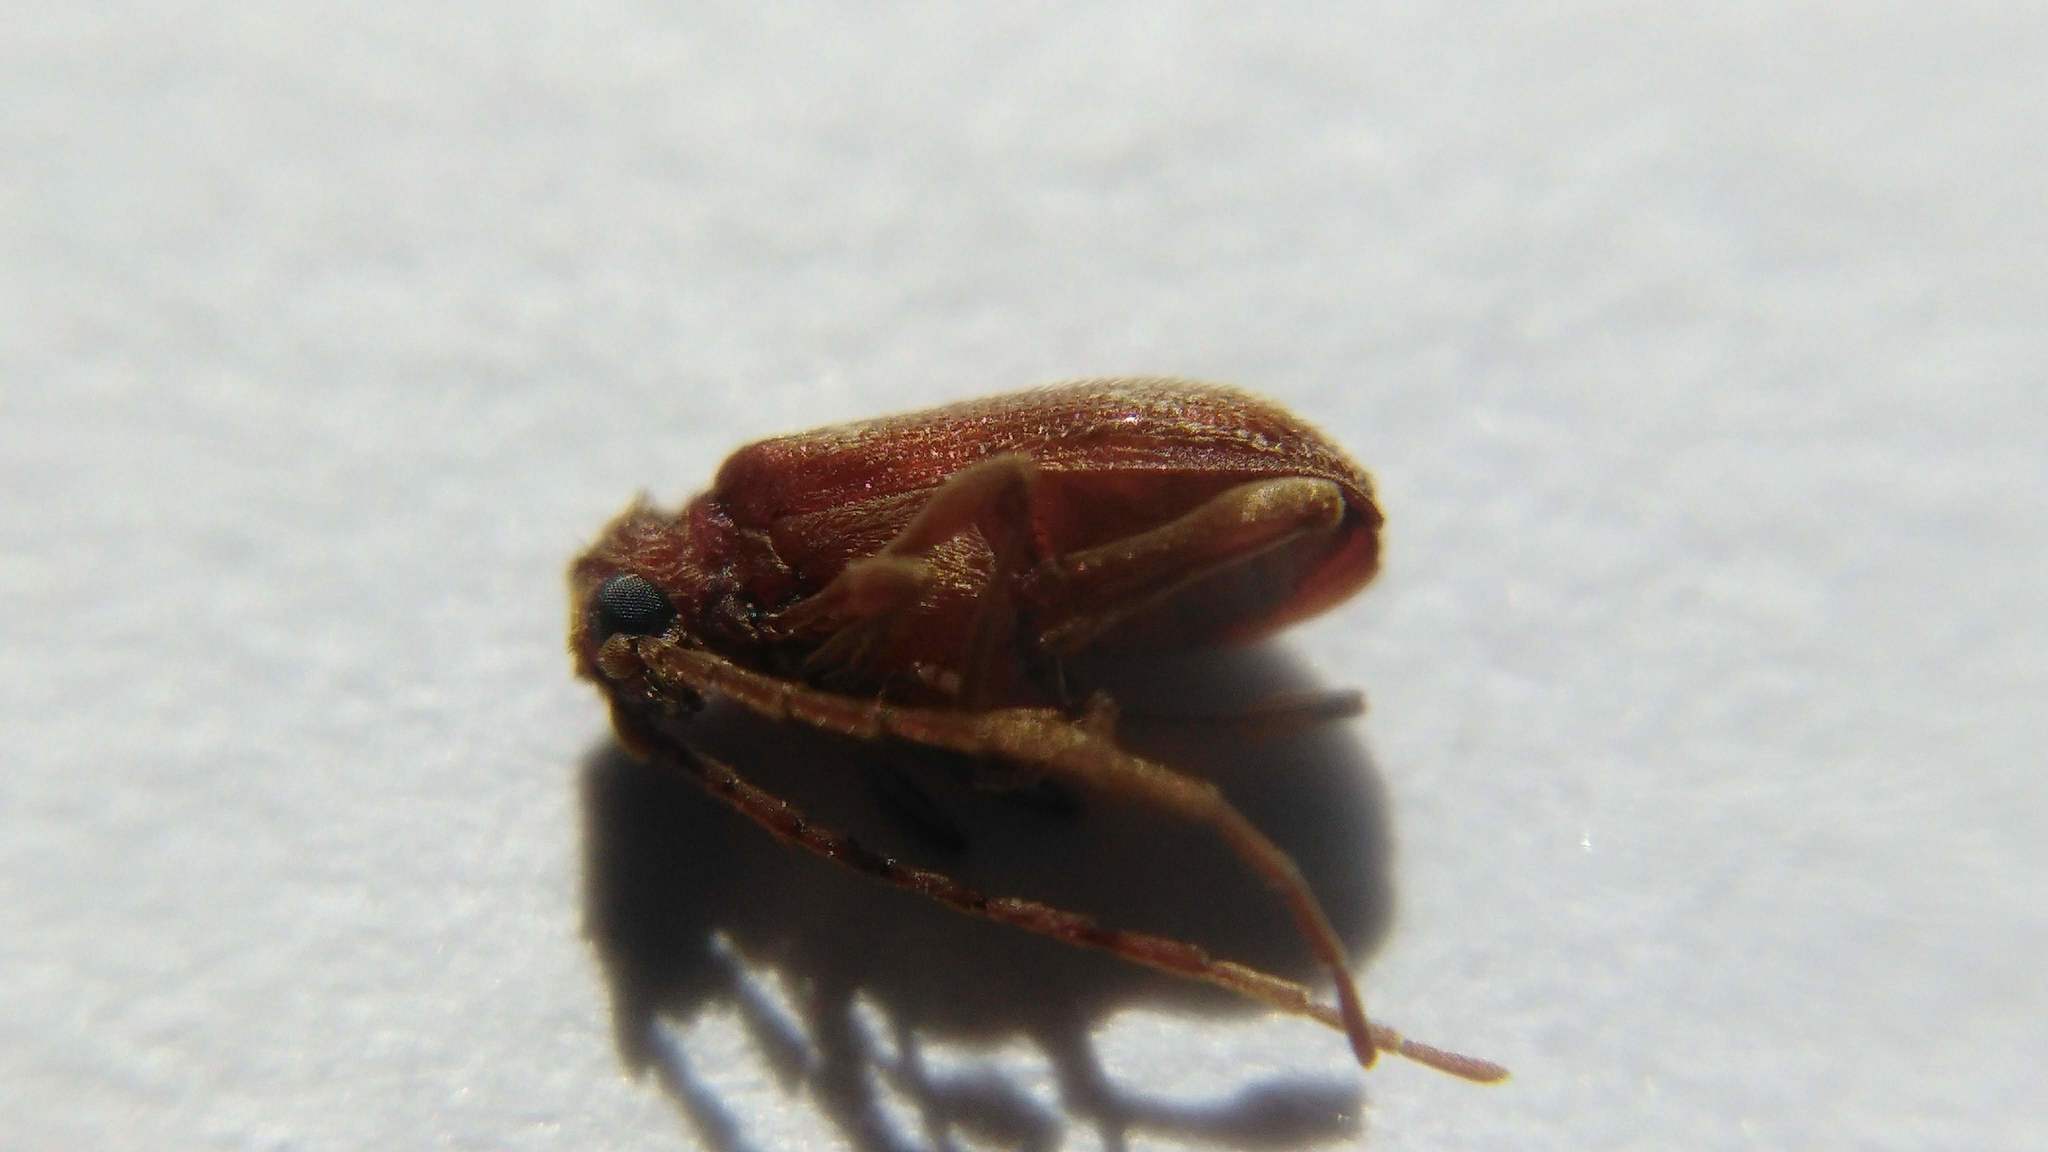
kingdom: Animalia
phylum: Arthropoda
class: Insecta
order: Coleoptera
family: Ptinidae
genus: Ptinus
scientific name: Ptinus fur
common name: White-marked spider beetle
